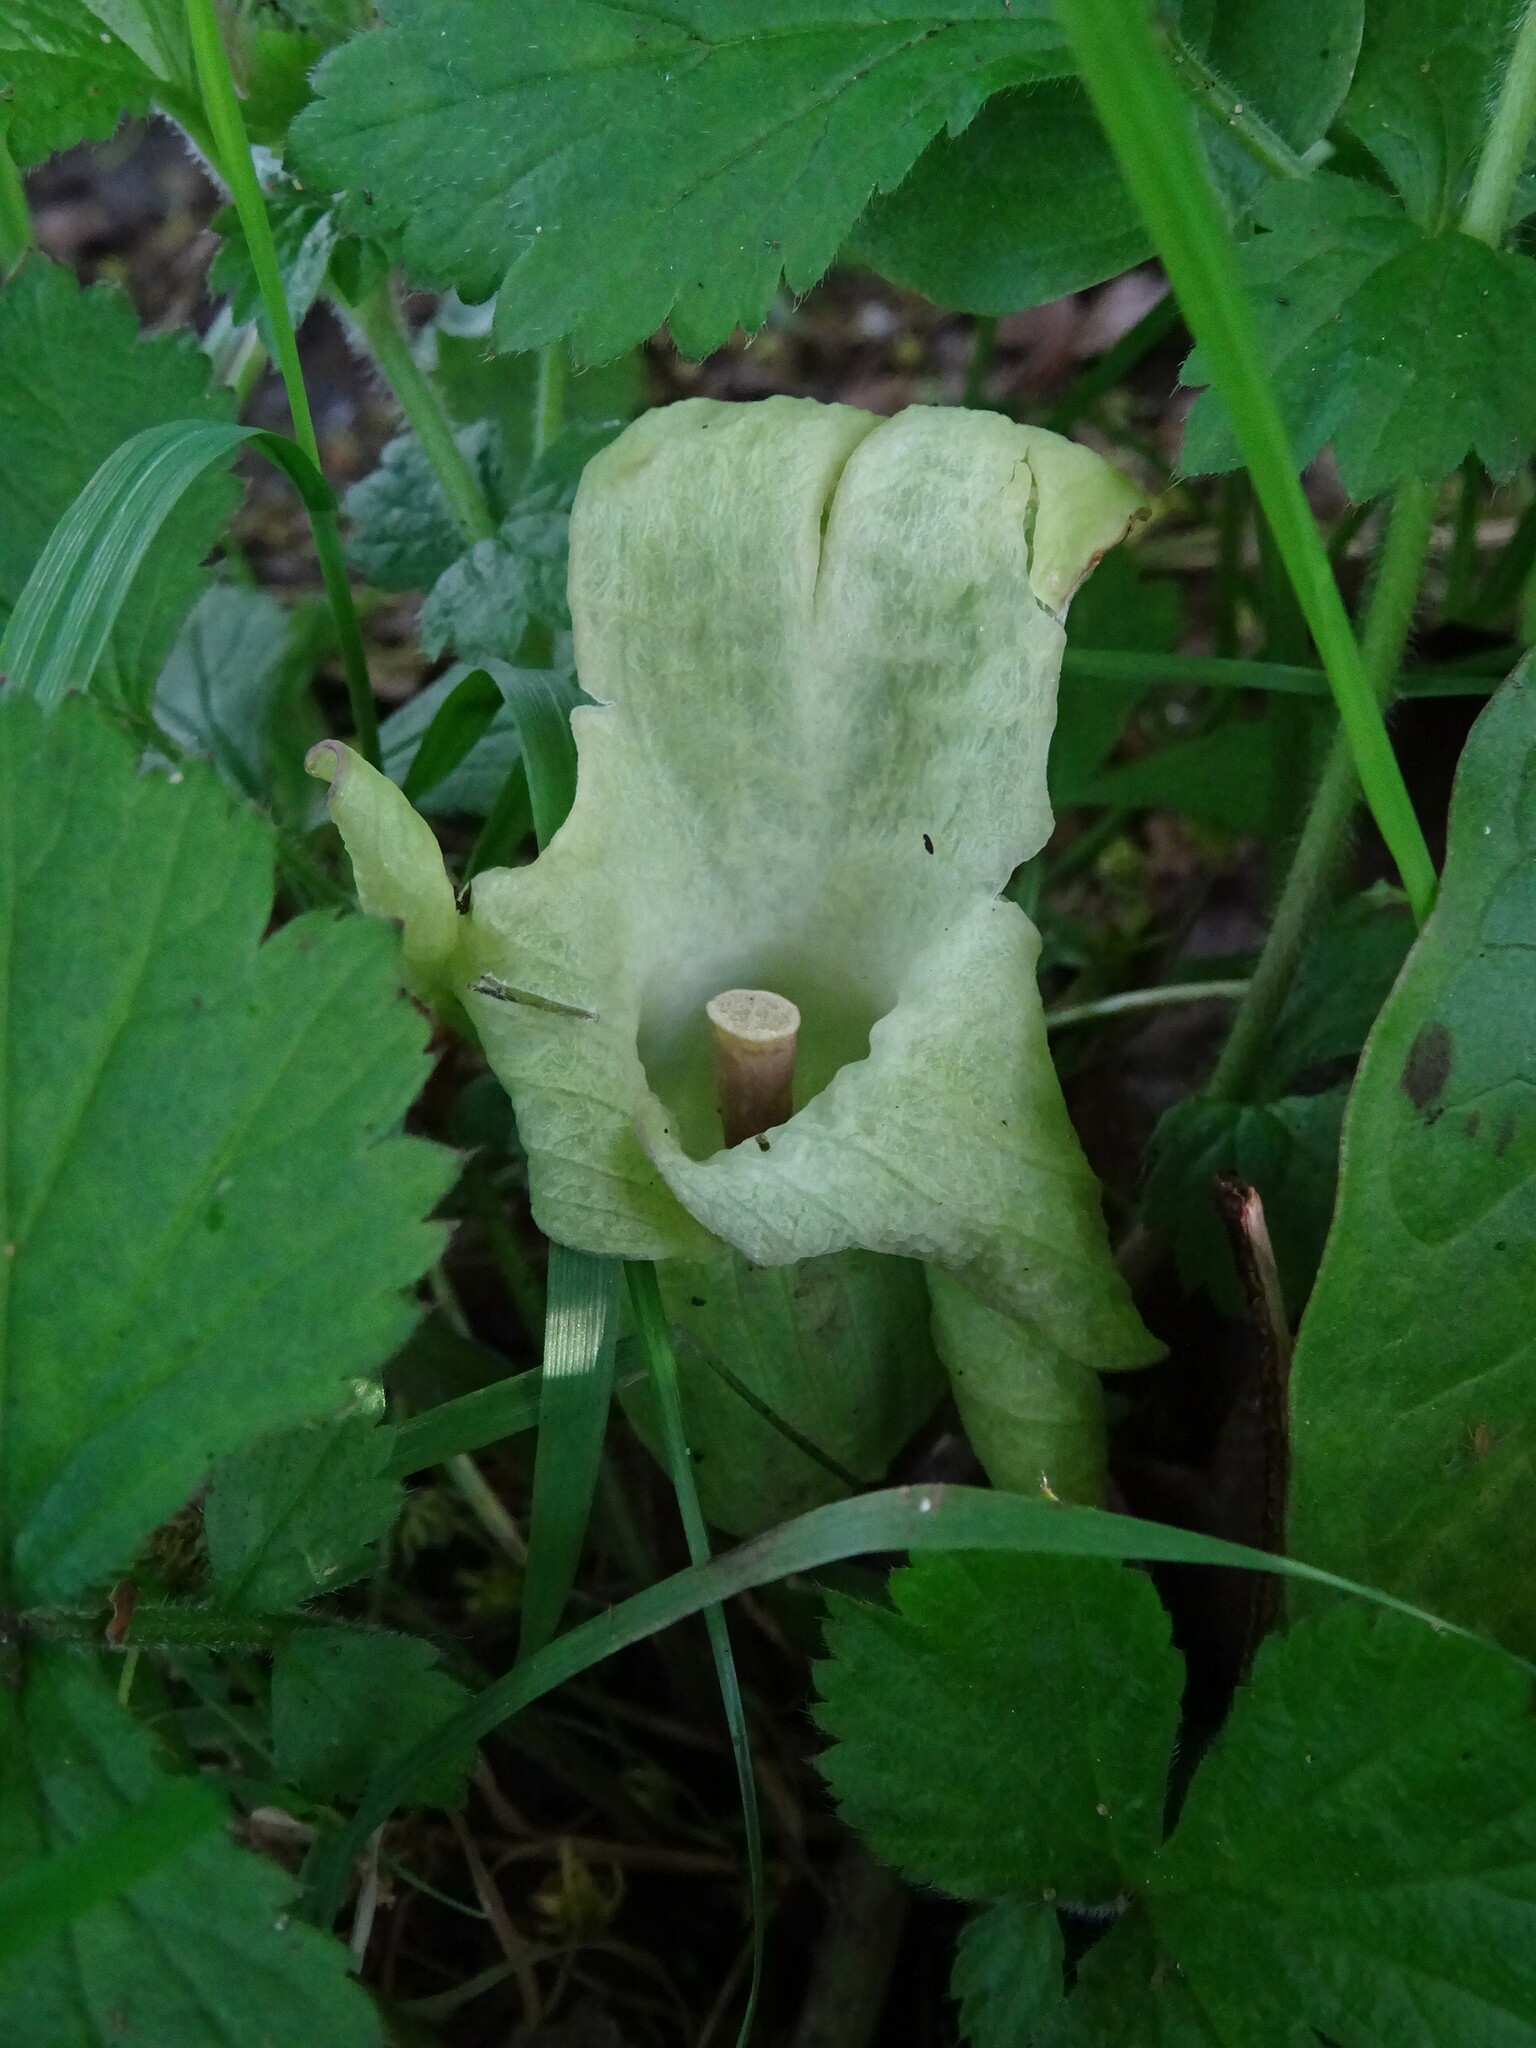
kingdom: Plantae
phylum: Tracheophyta
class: Liliopsida
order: Alismatales
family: Araceae
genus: Arum
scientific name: Arum maculatum
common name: Lords-and-ladies
